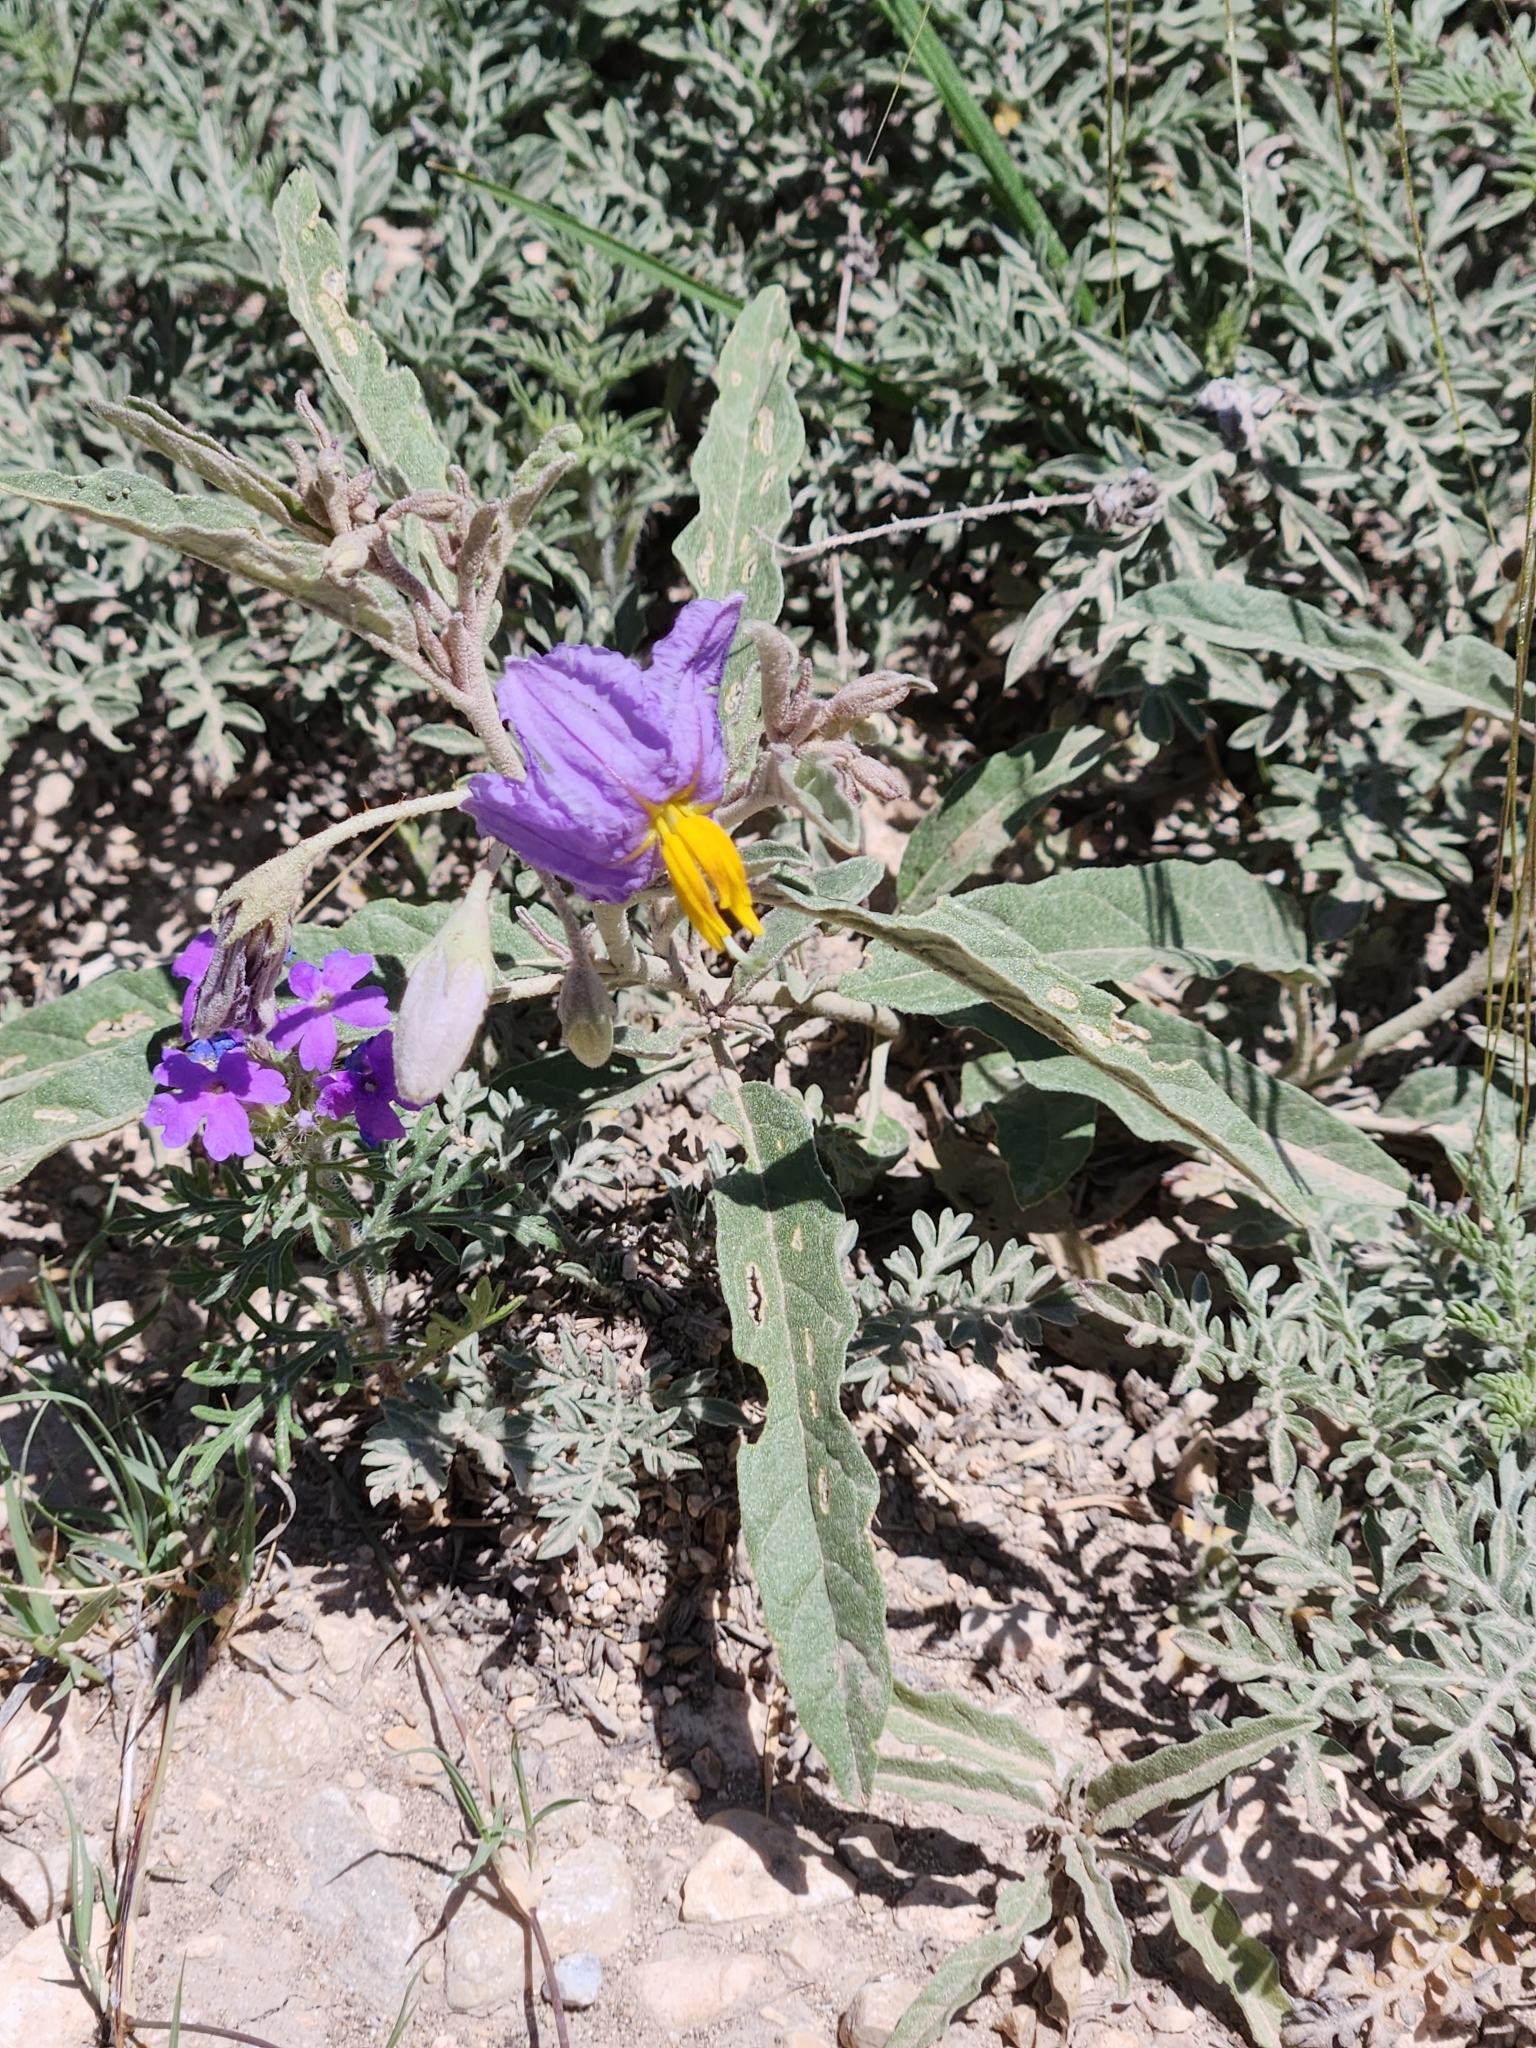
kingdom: Plantae
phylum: Tracheophyta
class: Magnoliopsida
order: Solanales
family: Solanaceae
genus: Solanum
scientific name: Solanum elaeagnifolium
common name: Silverleaf nightshade
